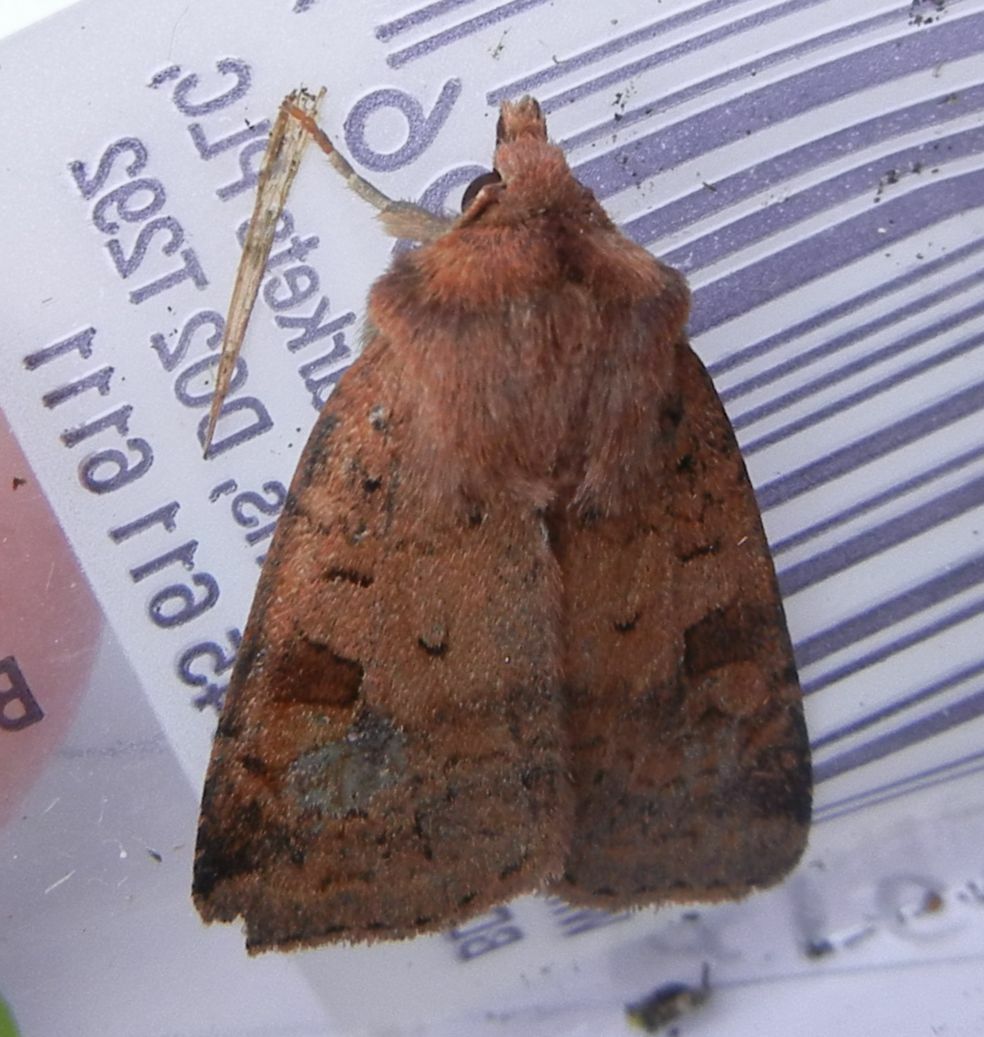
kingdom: Animalia
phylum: Arthropoda
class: Insecta
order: Lepidoptera
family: Noctuidae
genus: Diarsia
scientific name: Diarsia mendica
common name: Ingrailed clay
